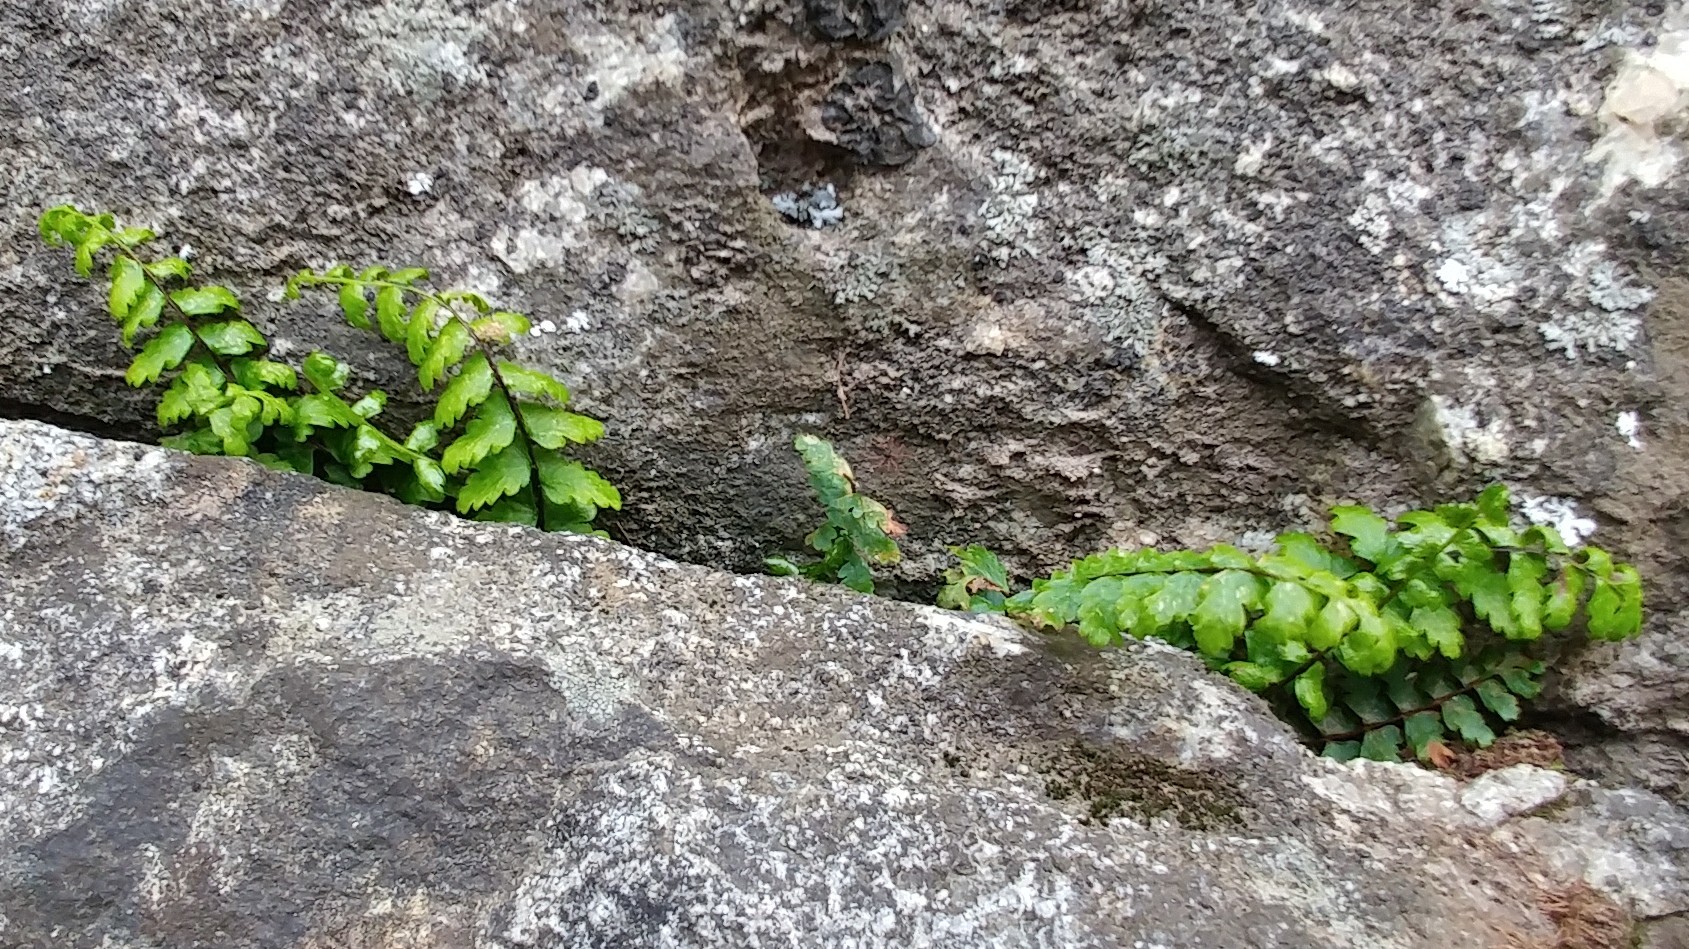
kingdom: Plantae
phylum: Tracheophyta
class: Polypodiopsida
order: Polypodiales
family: Aspleniaceae
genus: Asplenium
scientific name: Asplenium vespertinum
